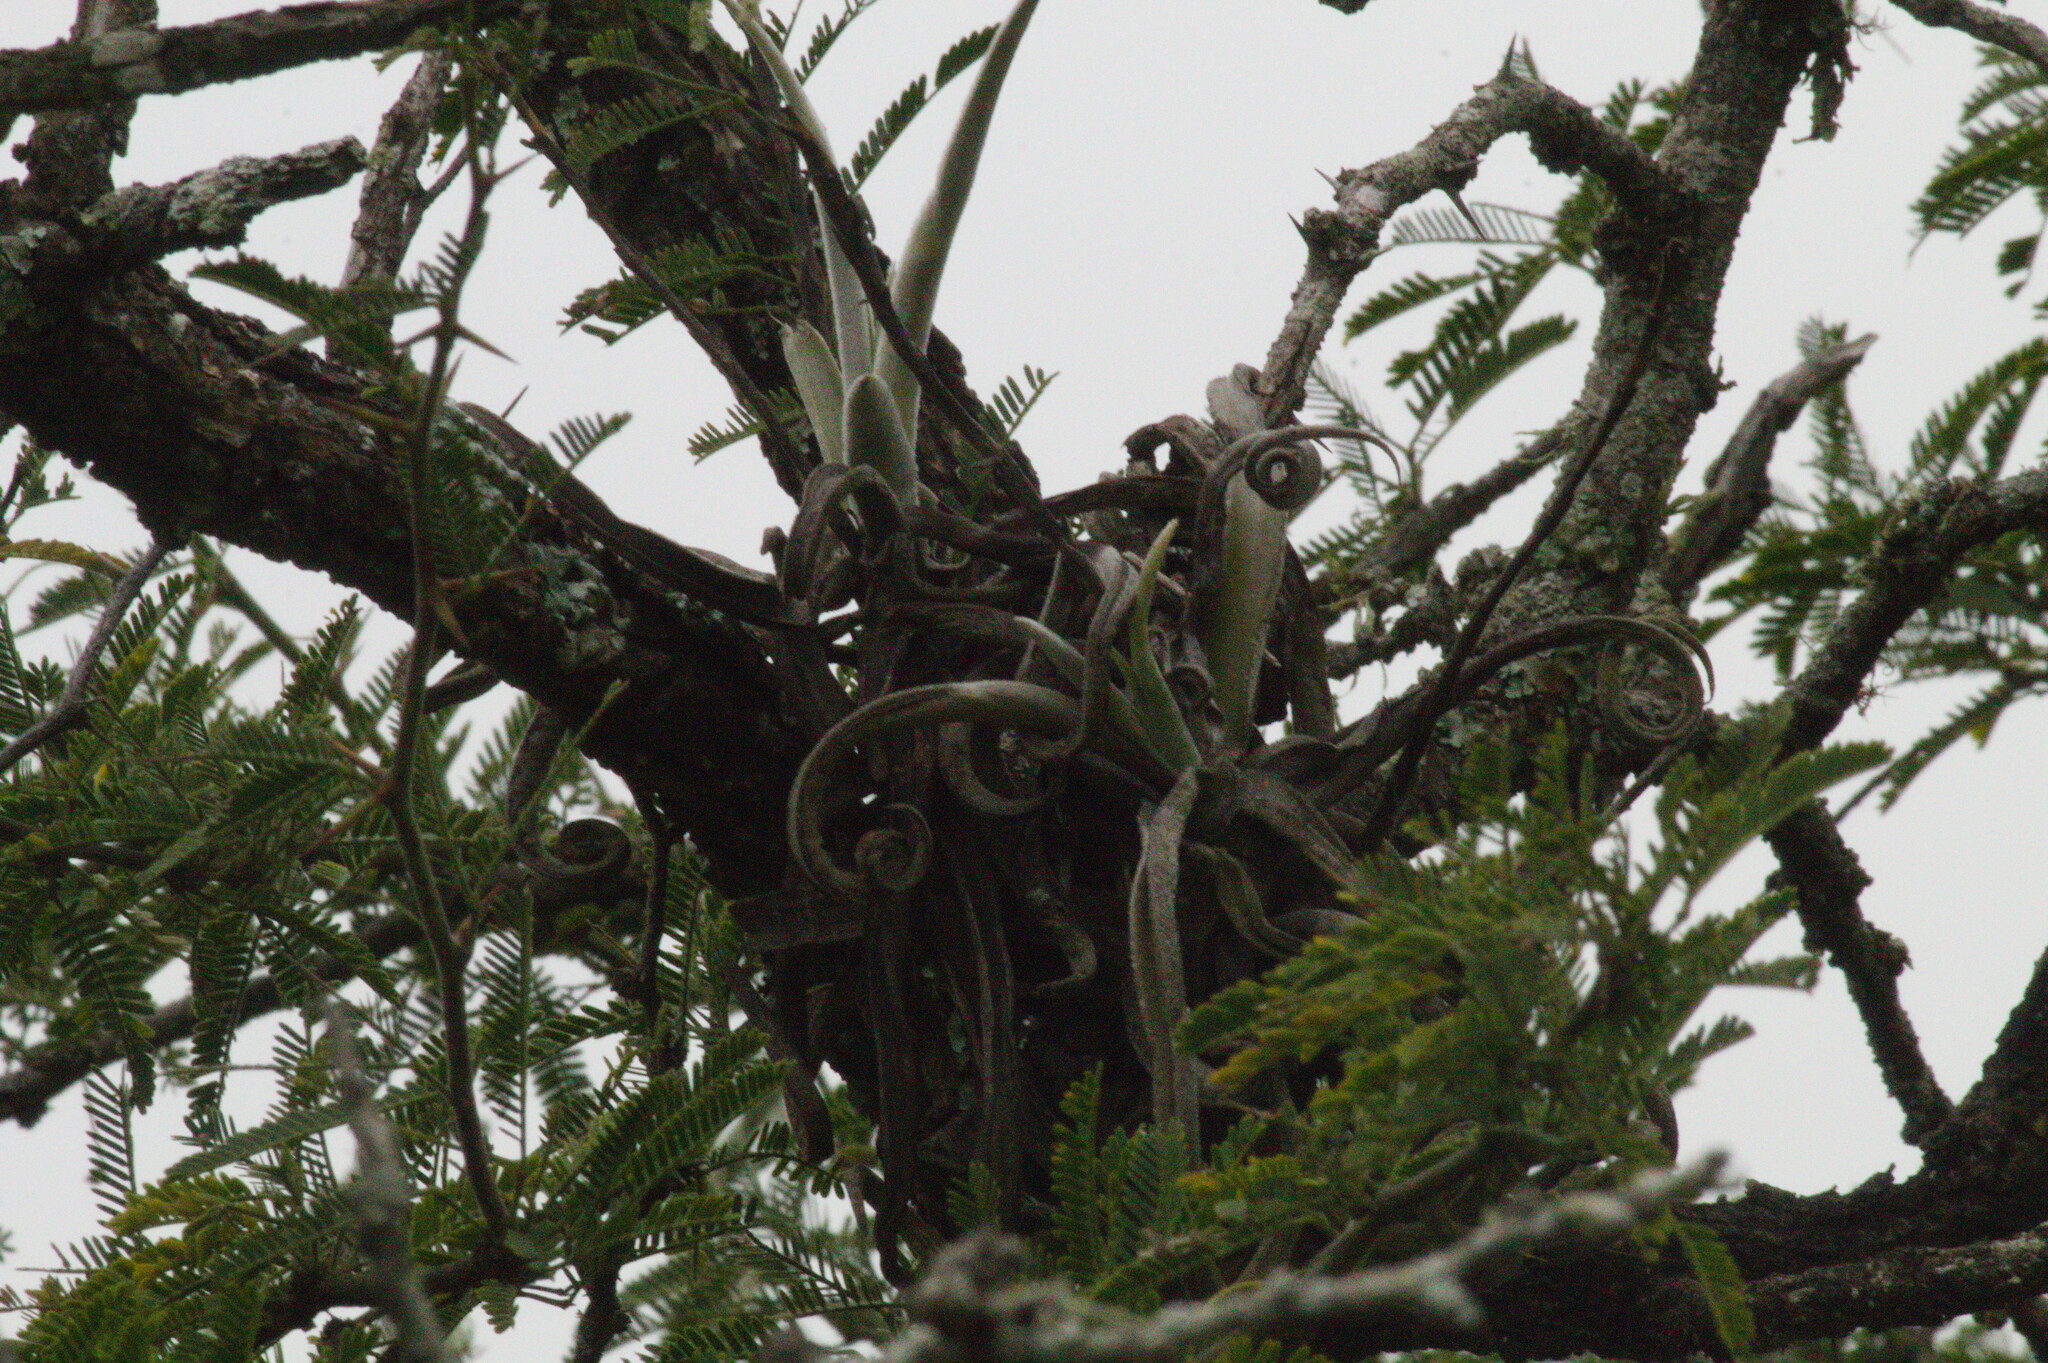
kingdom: Plantae
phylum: Tracheophyta
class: Liliopsida
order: Poales
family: Bromeliaceae
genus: Tillandsia
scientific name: Tillandsia duratii
